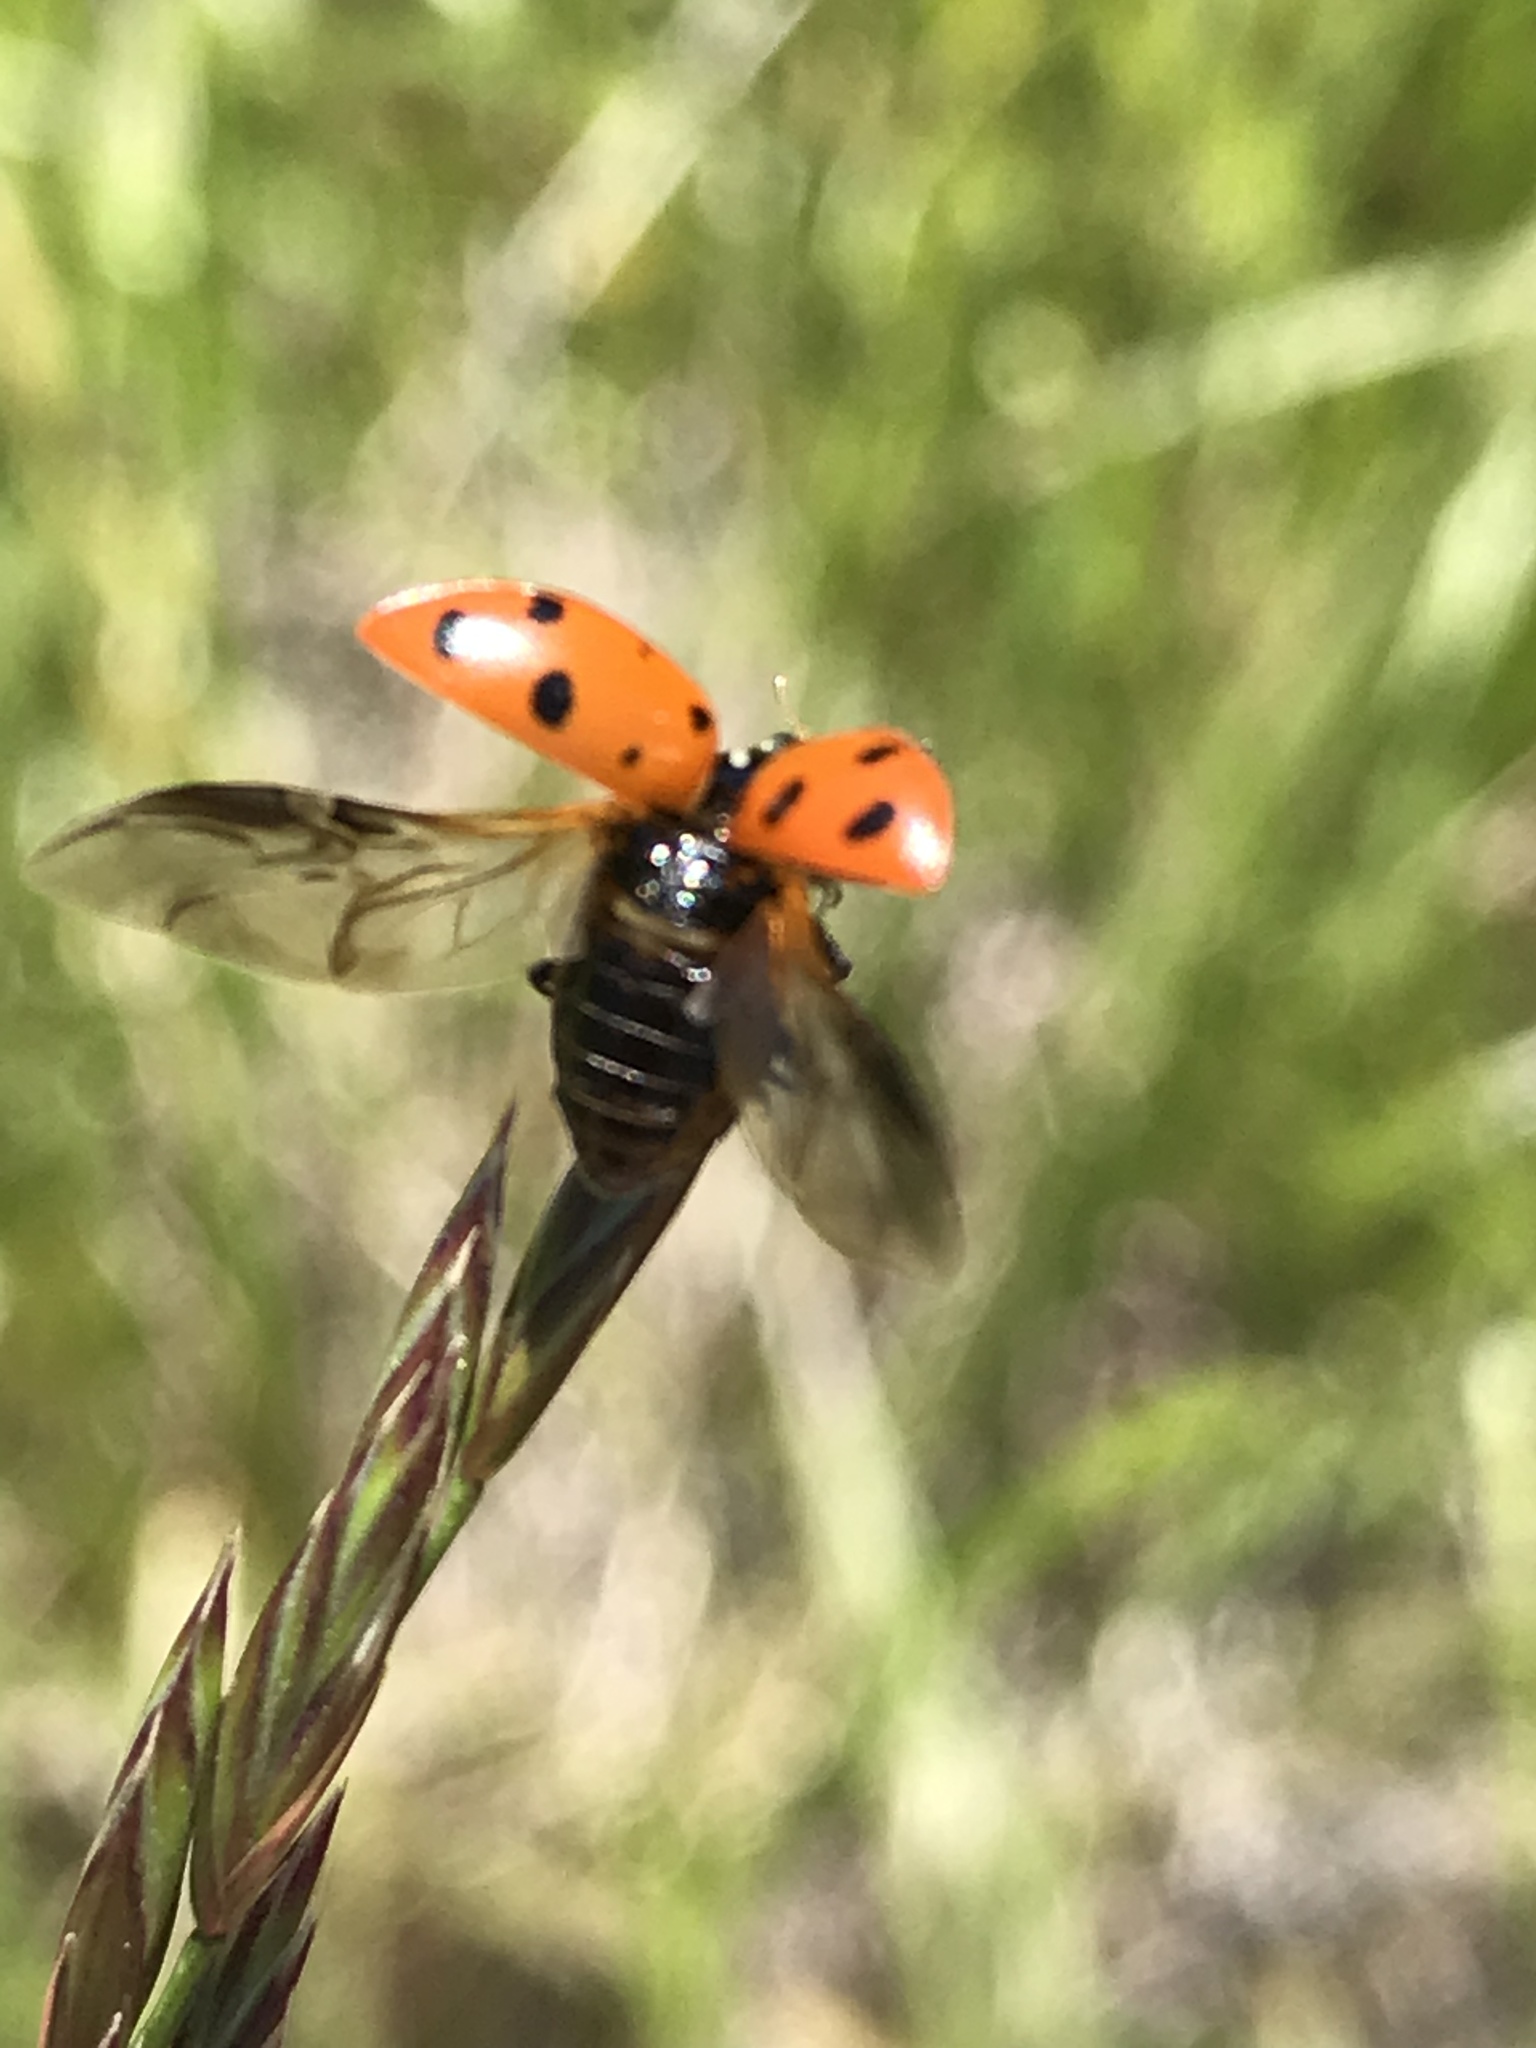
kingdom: Animalia
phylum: Arthropoda
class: Insecta
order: Coleoptera
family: Coccinellidae
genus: Hippodamia
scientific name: Hippodamia convergens
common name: Convergent lady beetle
